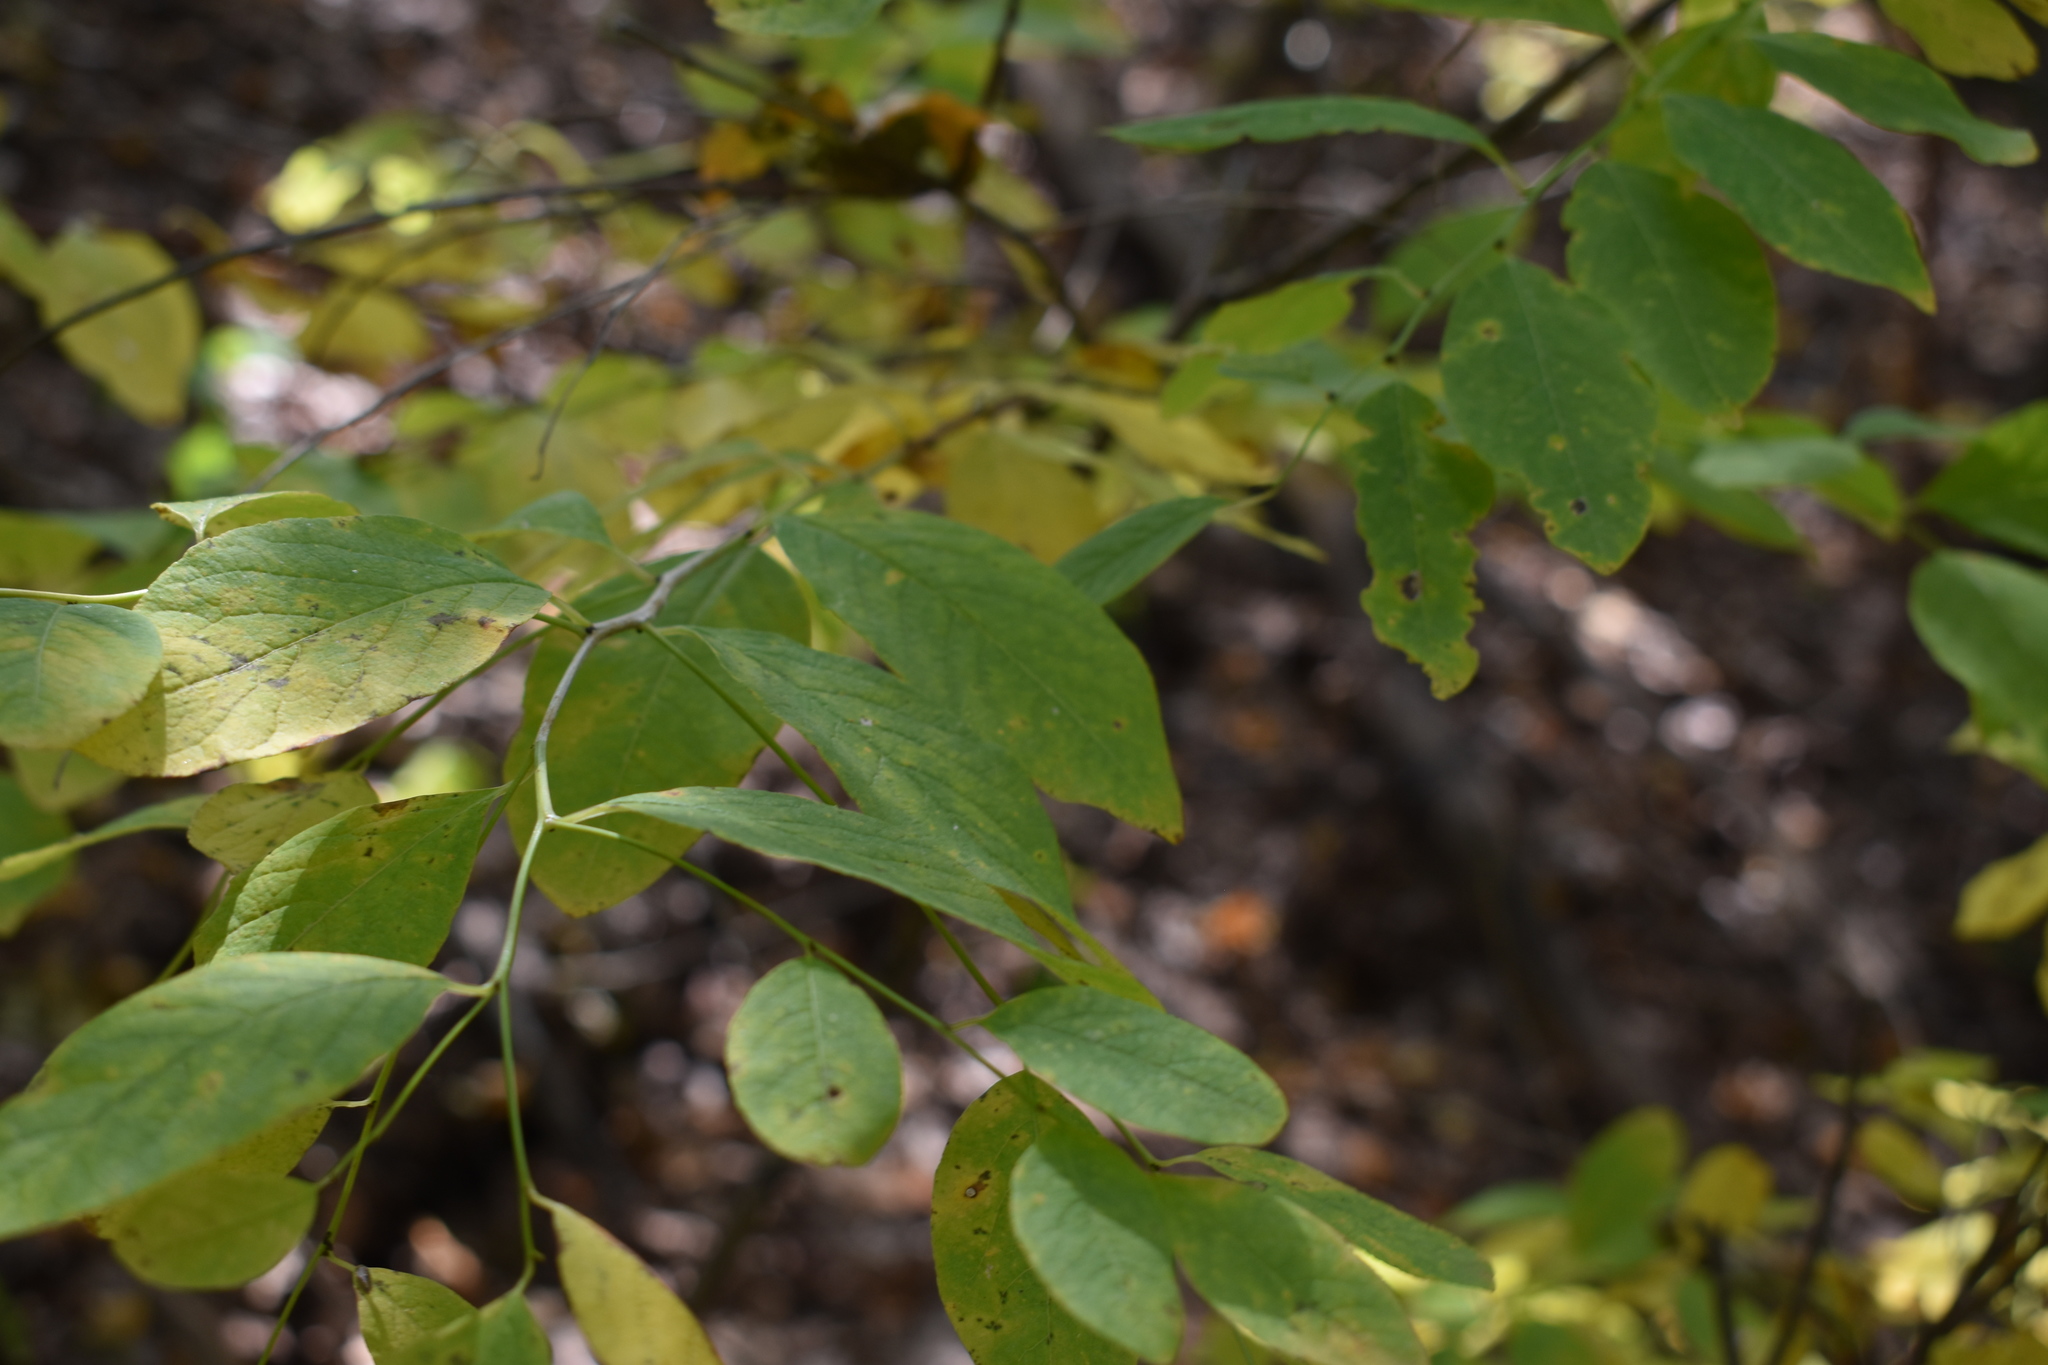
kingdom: Plantae
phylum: Tracheophyta
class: Magnoliopsida
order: Malpighiales
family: Phyllanthaceae
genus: Flueggea
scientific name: Flueggea suffruticosa
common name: Arching bushweed
